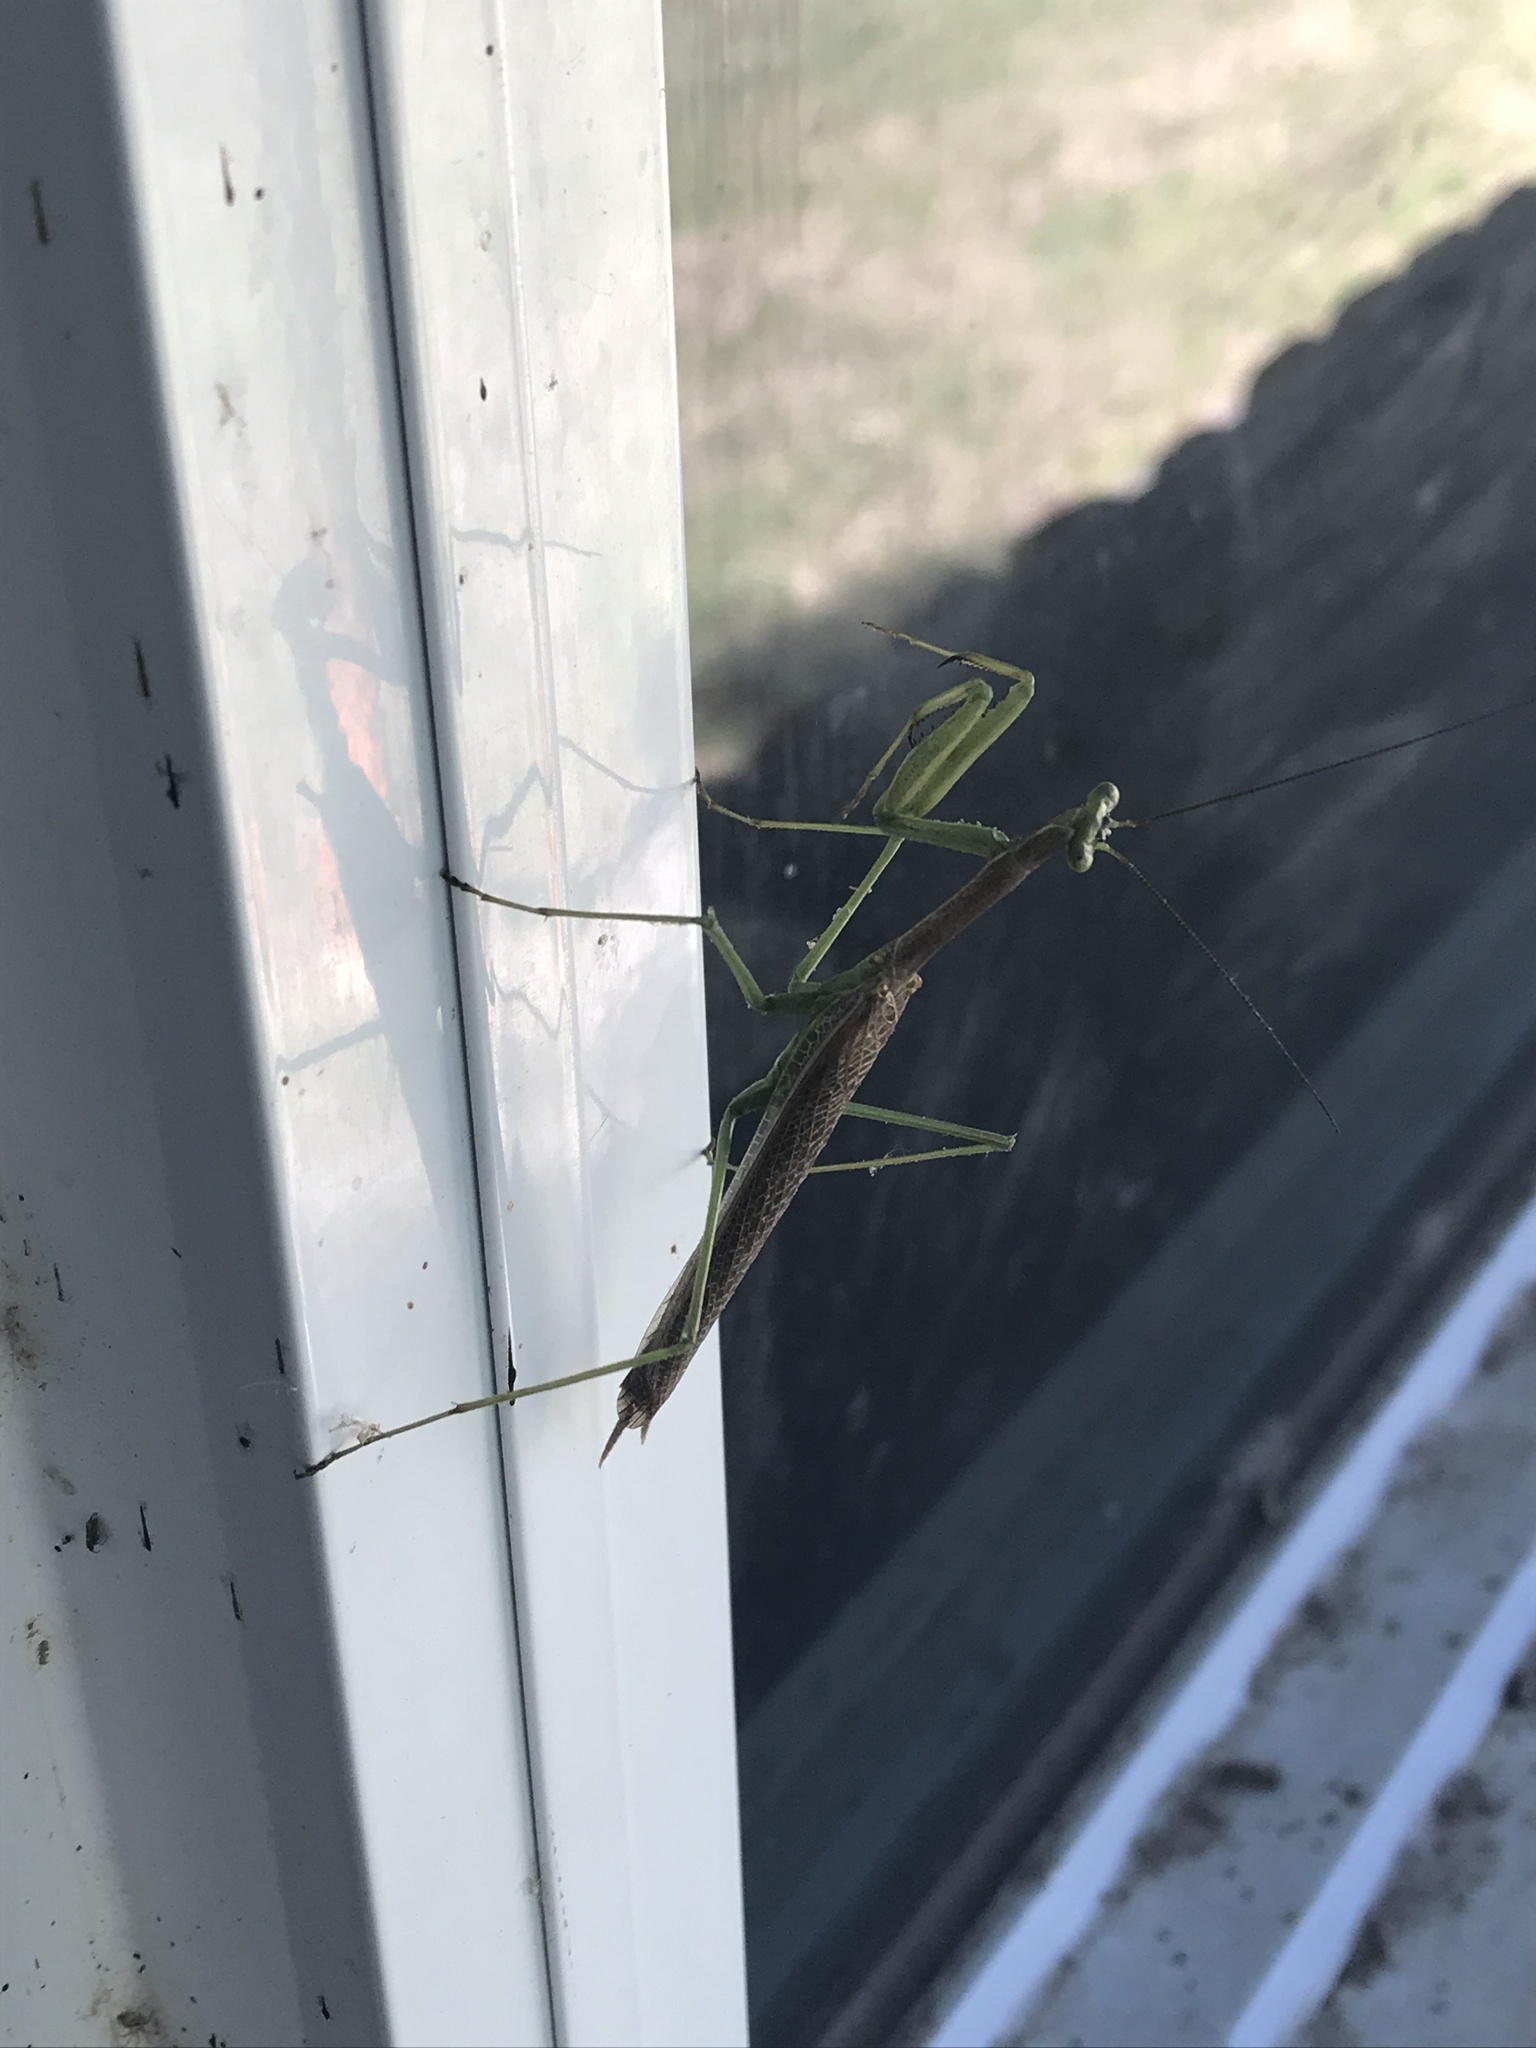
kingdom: Animalia
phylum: Arthropoda
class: Insecta
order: Mantodea
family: Coptopterygidae
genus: Coptopteryx
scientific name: Coptopteryx gayi
